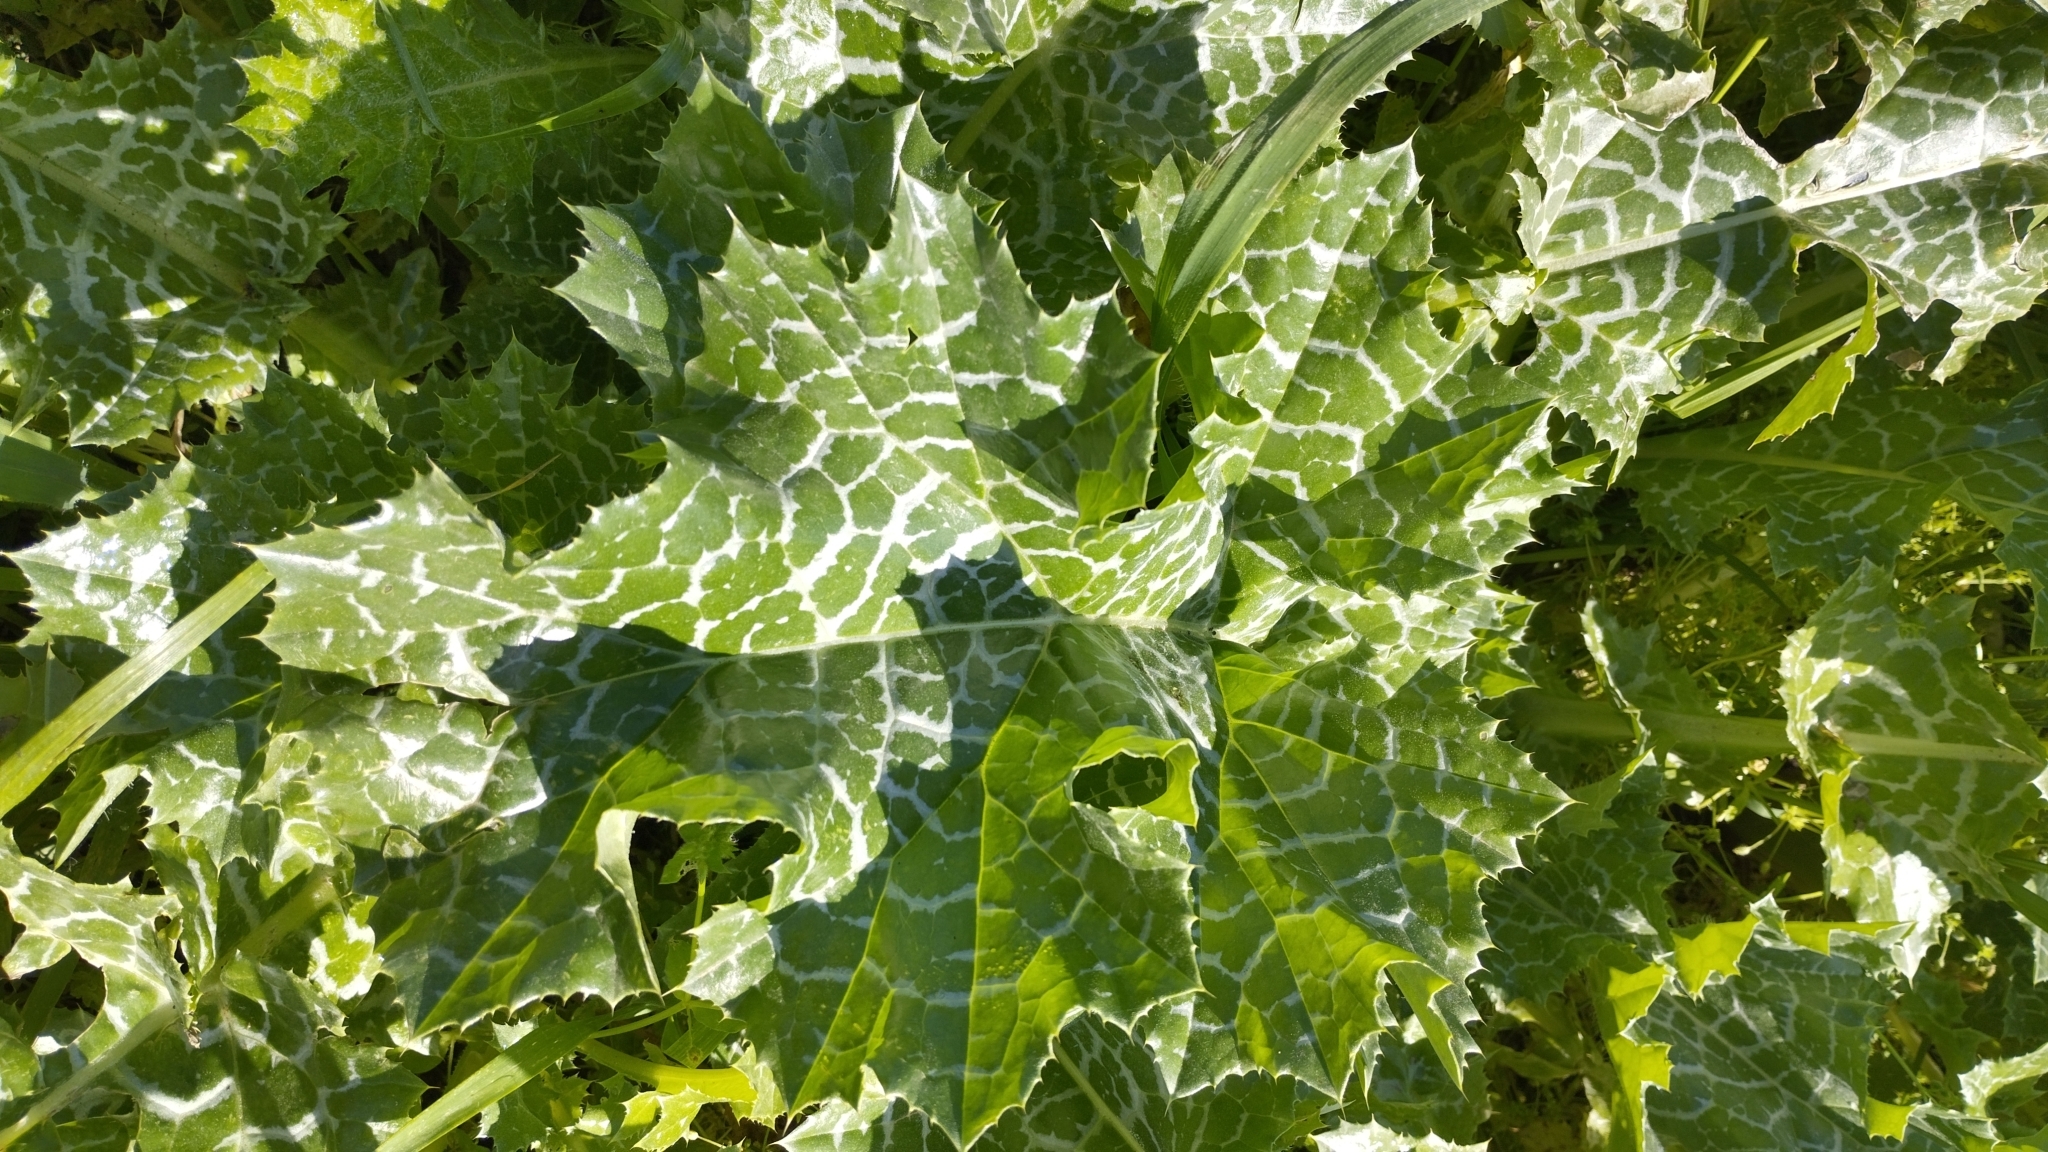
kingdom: Plantae
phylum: Tracheophyta
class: Magnoliopsida
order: Asterales
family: Asteraceae
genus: Silybum
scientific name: Silybum marianum
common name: Milk thistle
